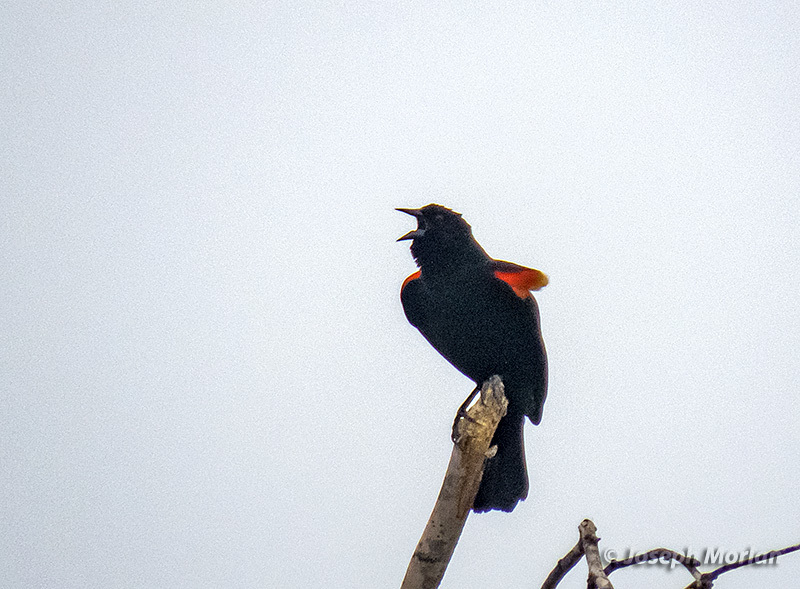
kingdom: Animalia
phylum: Chordata
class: Aves
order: Passeriformes
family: Icteridae
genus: Agelaius
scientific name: Agelaius phoeniceus
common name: Red-winged blackbird
